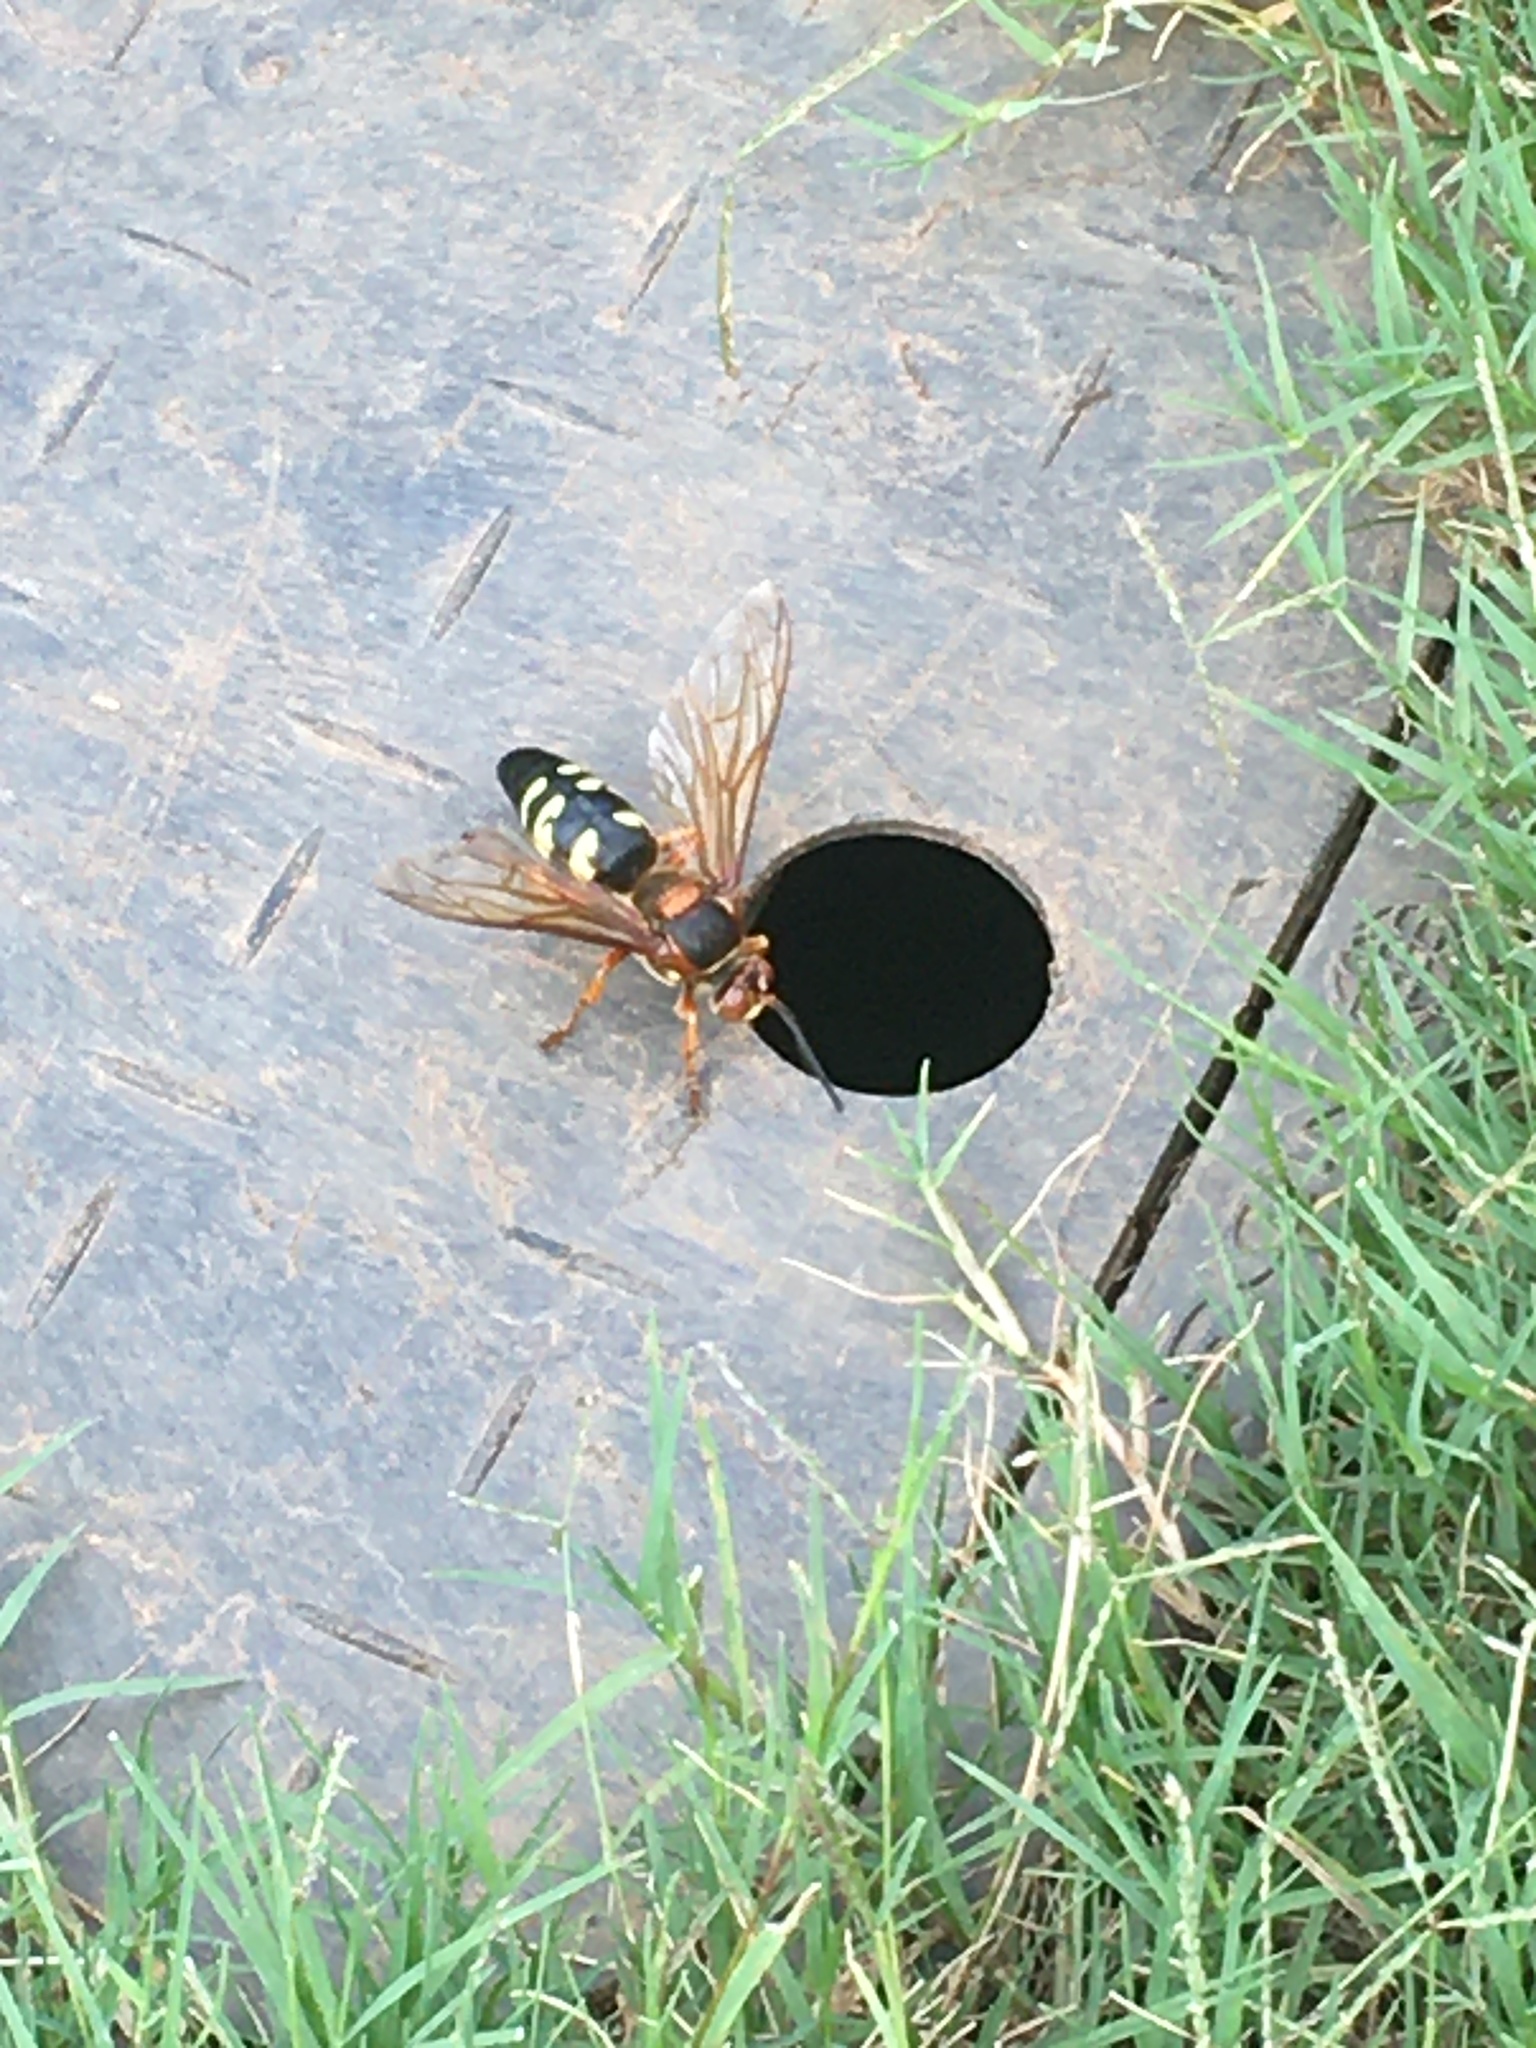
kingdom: Animalia
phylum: Arthropoda
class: Insecta
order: Hymenoptera
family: Crabronidae
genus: Sphecius
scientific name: Sphecius speciosus
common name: Cicada killer
